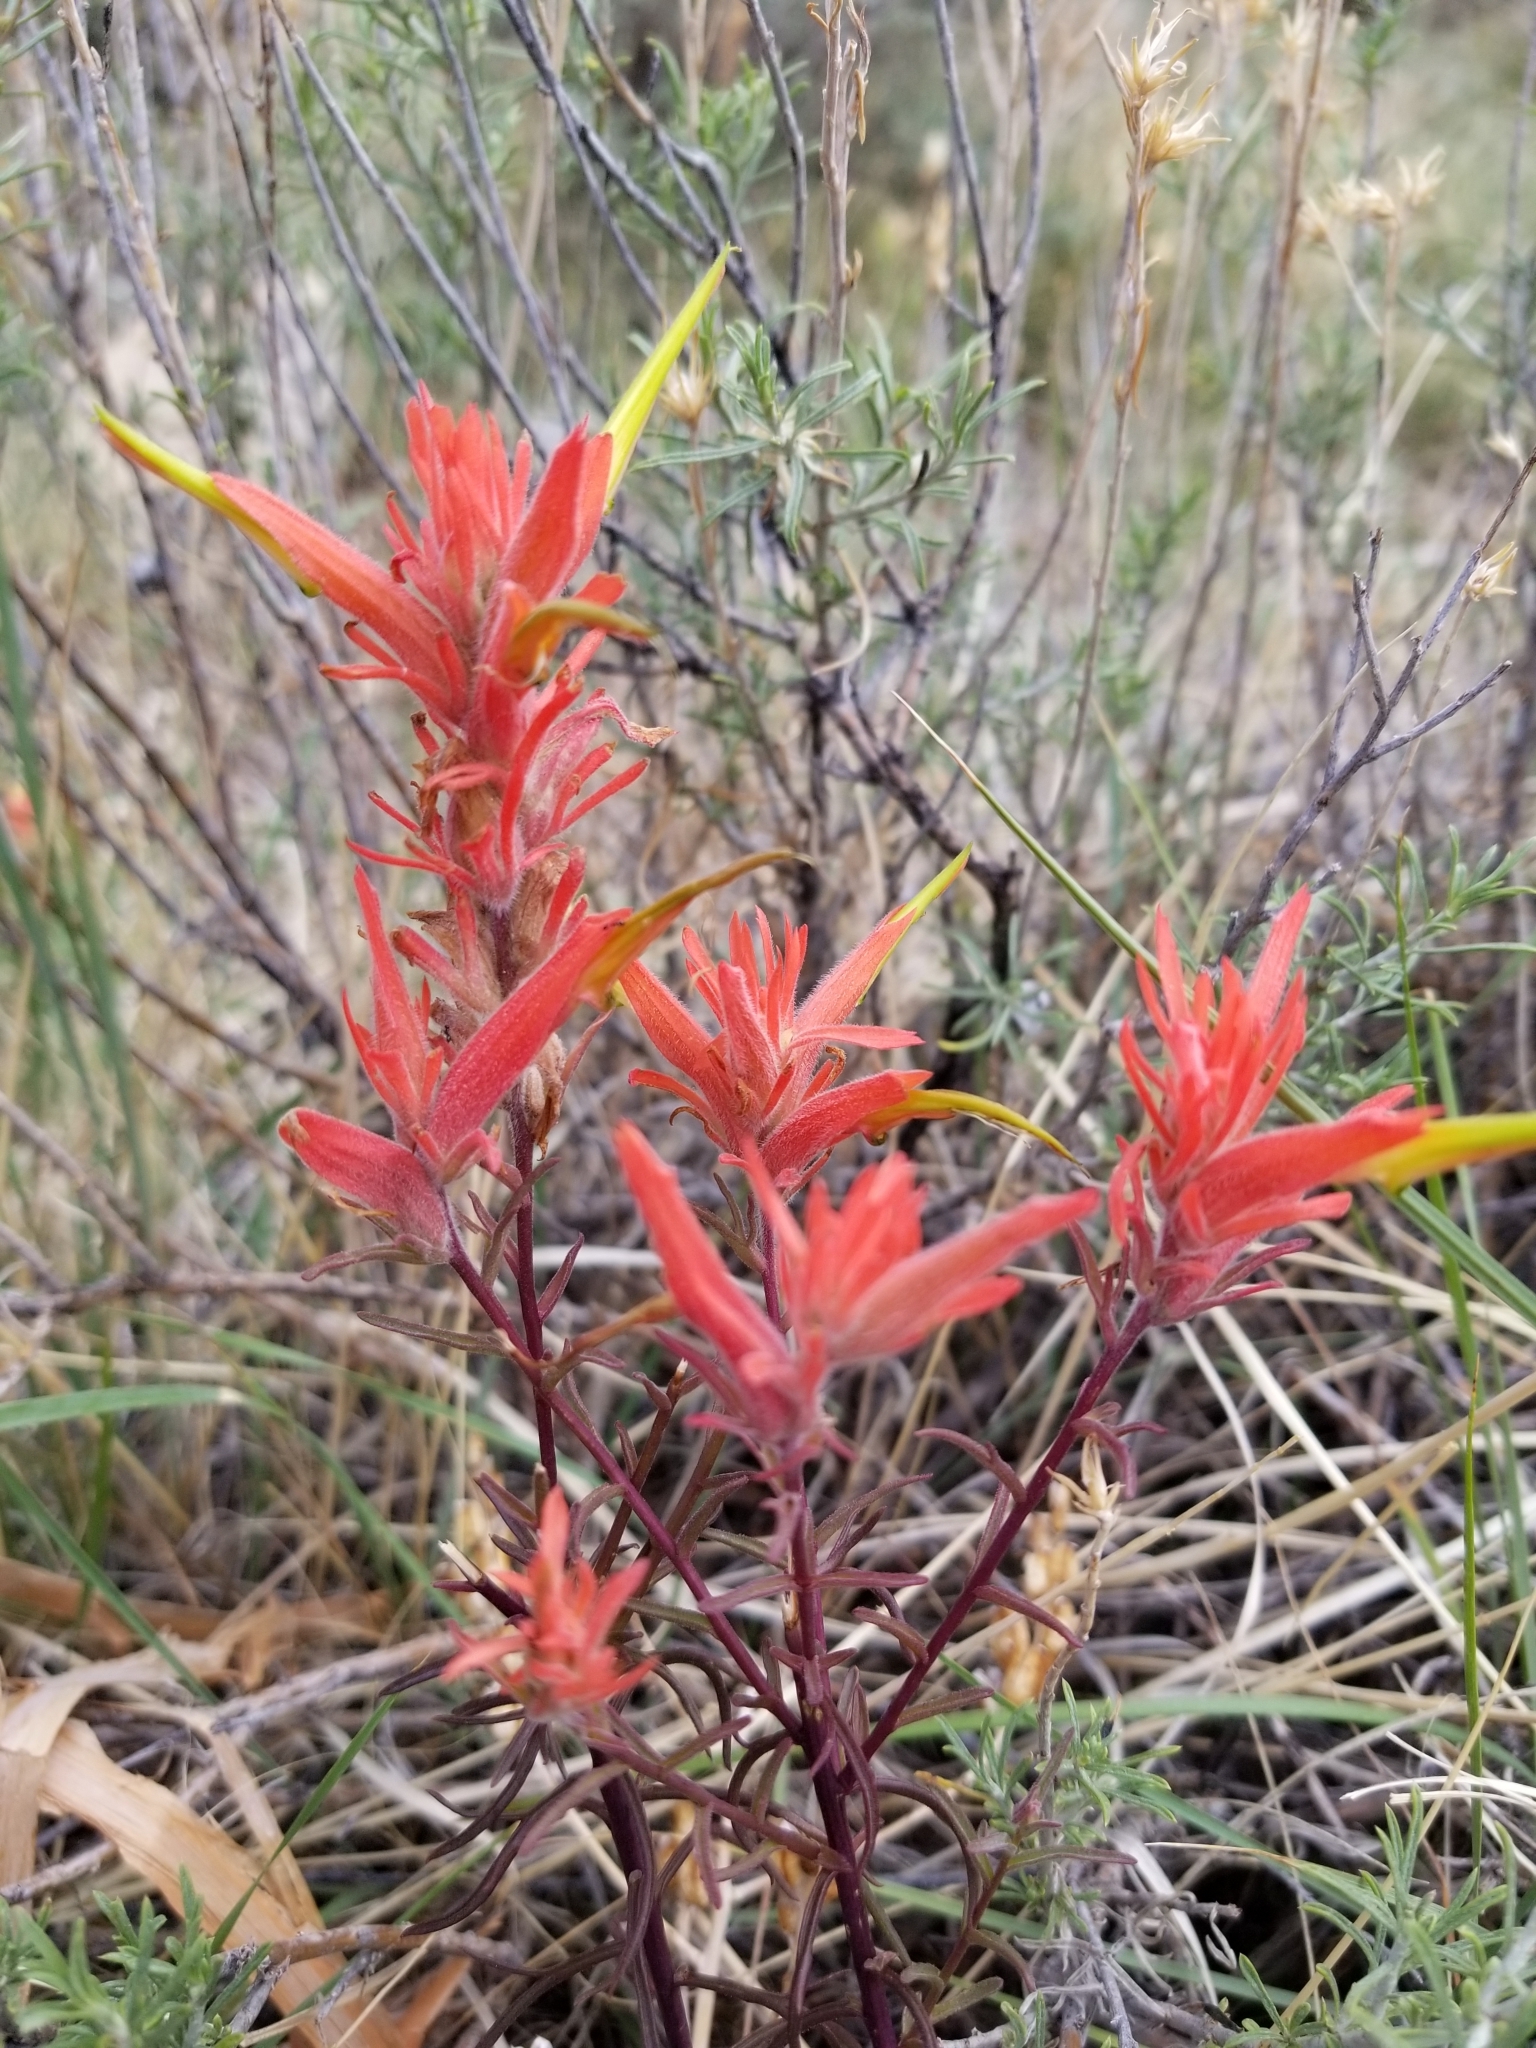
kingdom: Plantae
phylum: Tracheophyta
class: Magnoliopsida
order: Lamiales
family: Orobanchaceae
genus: Castilleja
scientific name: Castilleja linariifolia
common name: Wyoming paintbrush
